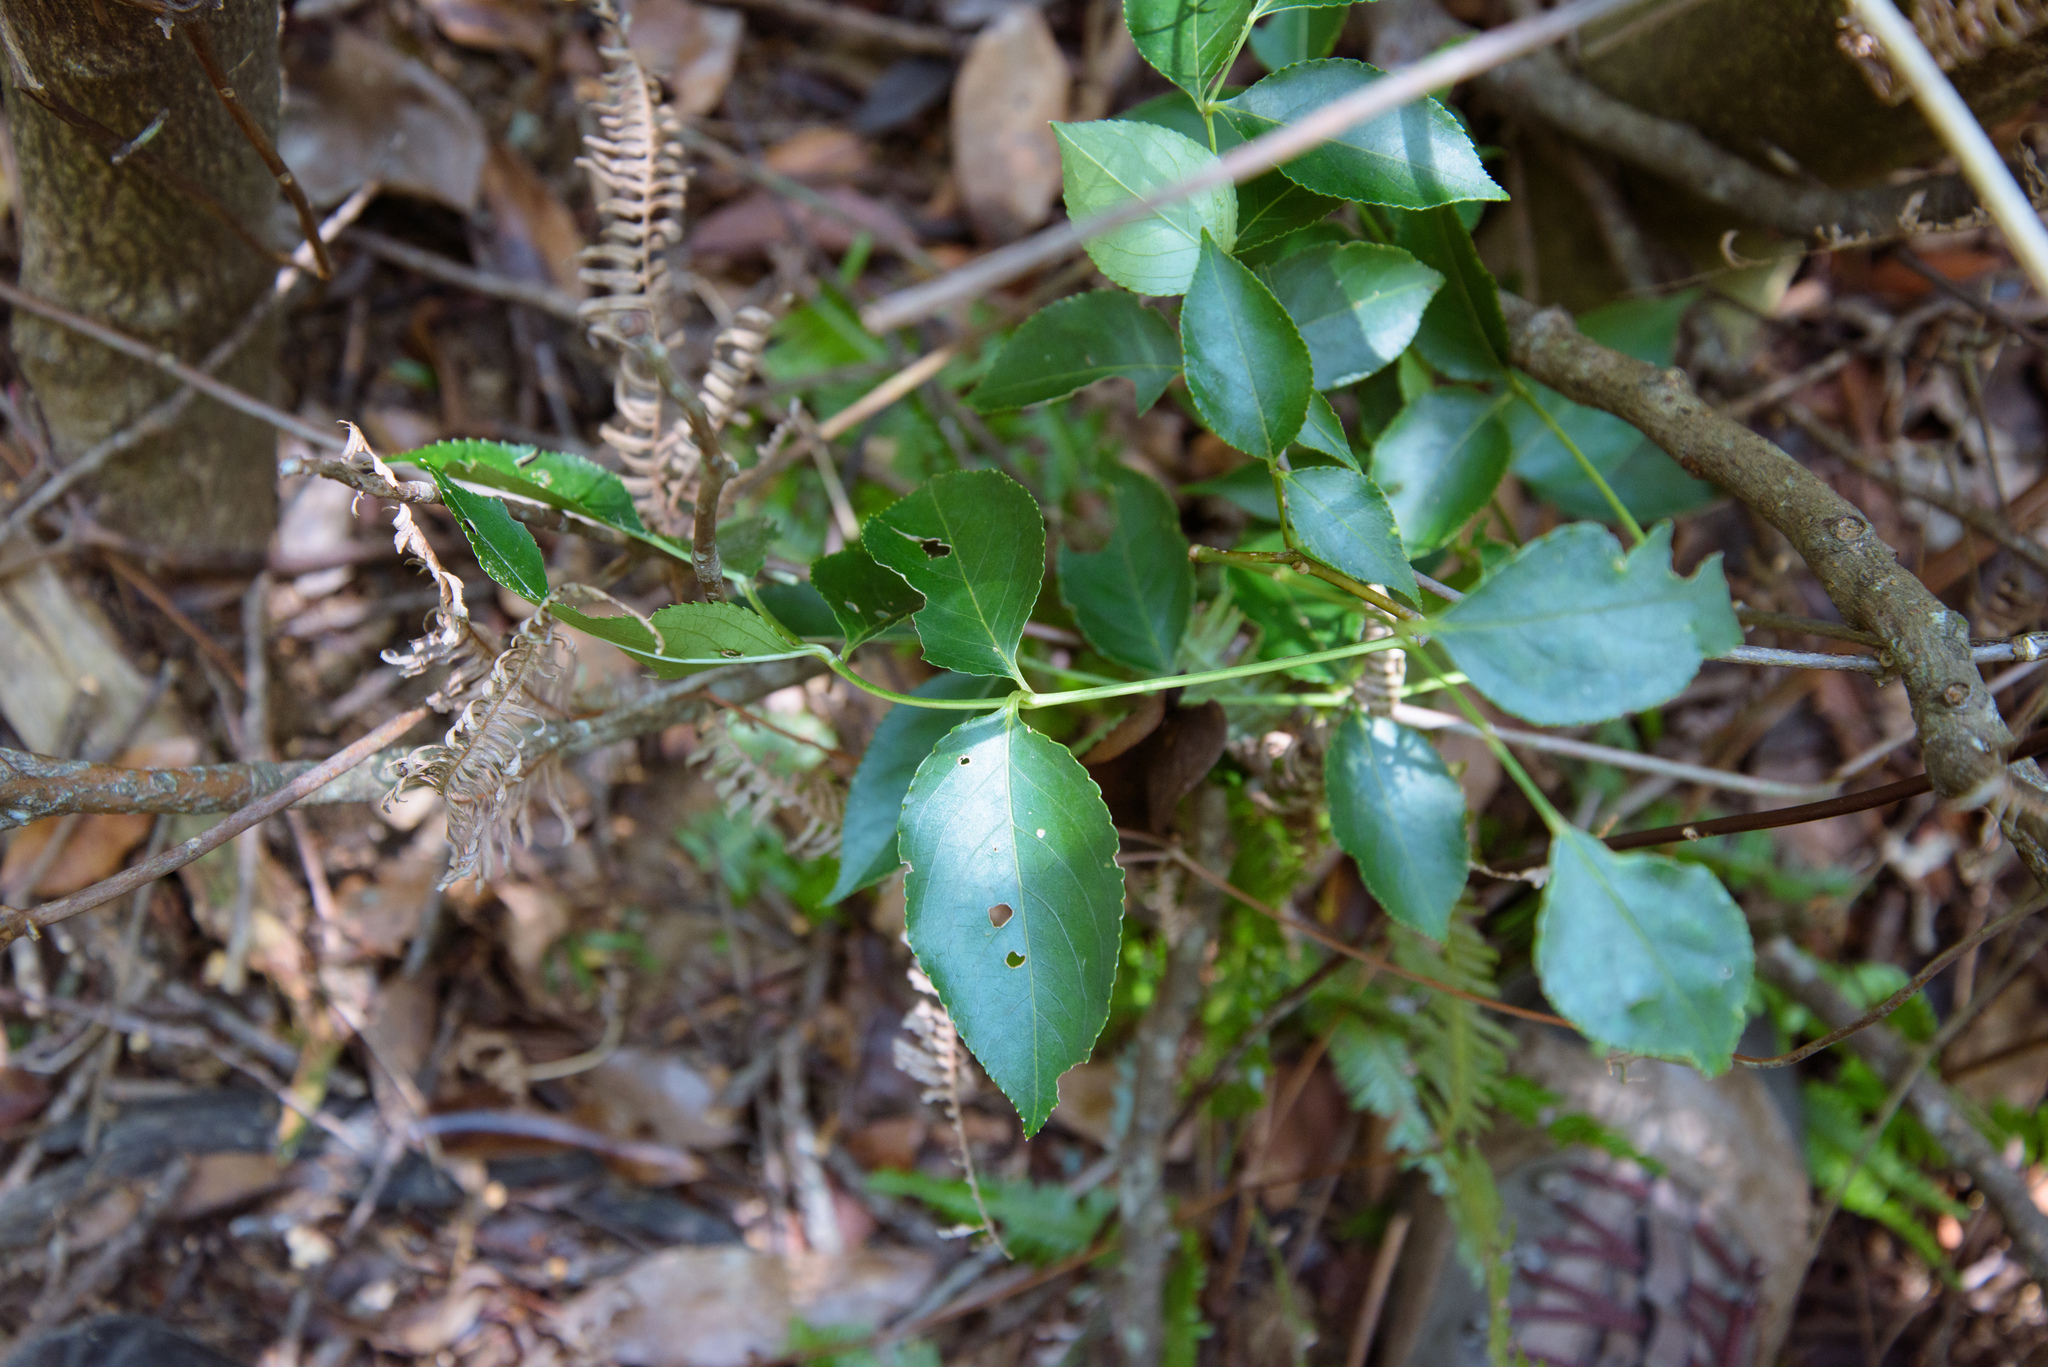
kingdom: Plantae
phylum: Tracheophyta
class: Magnoliopsida
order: Crossosomatales
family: Staphyleaceae
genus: Staphylea
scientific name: Staphylea japonica
